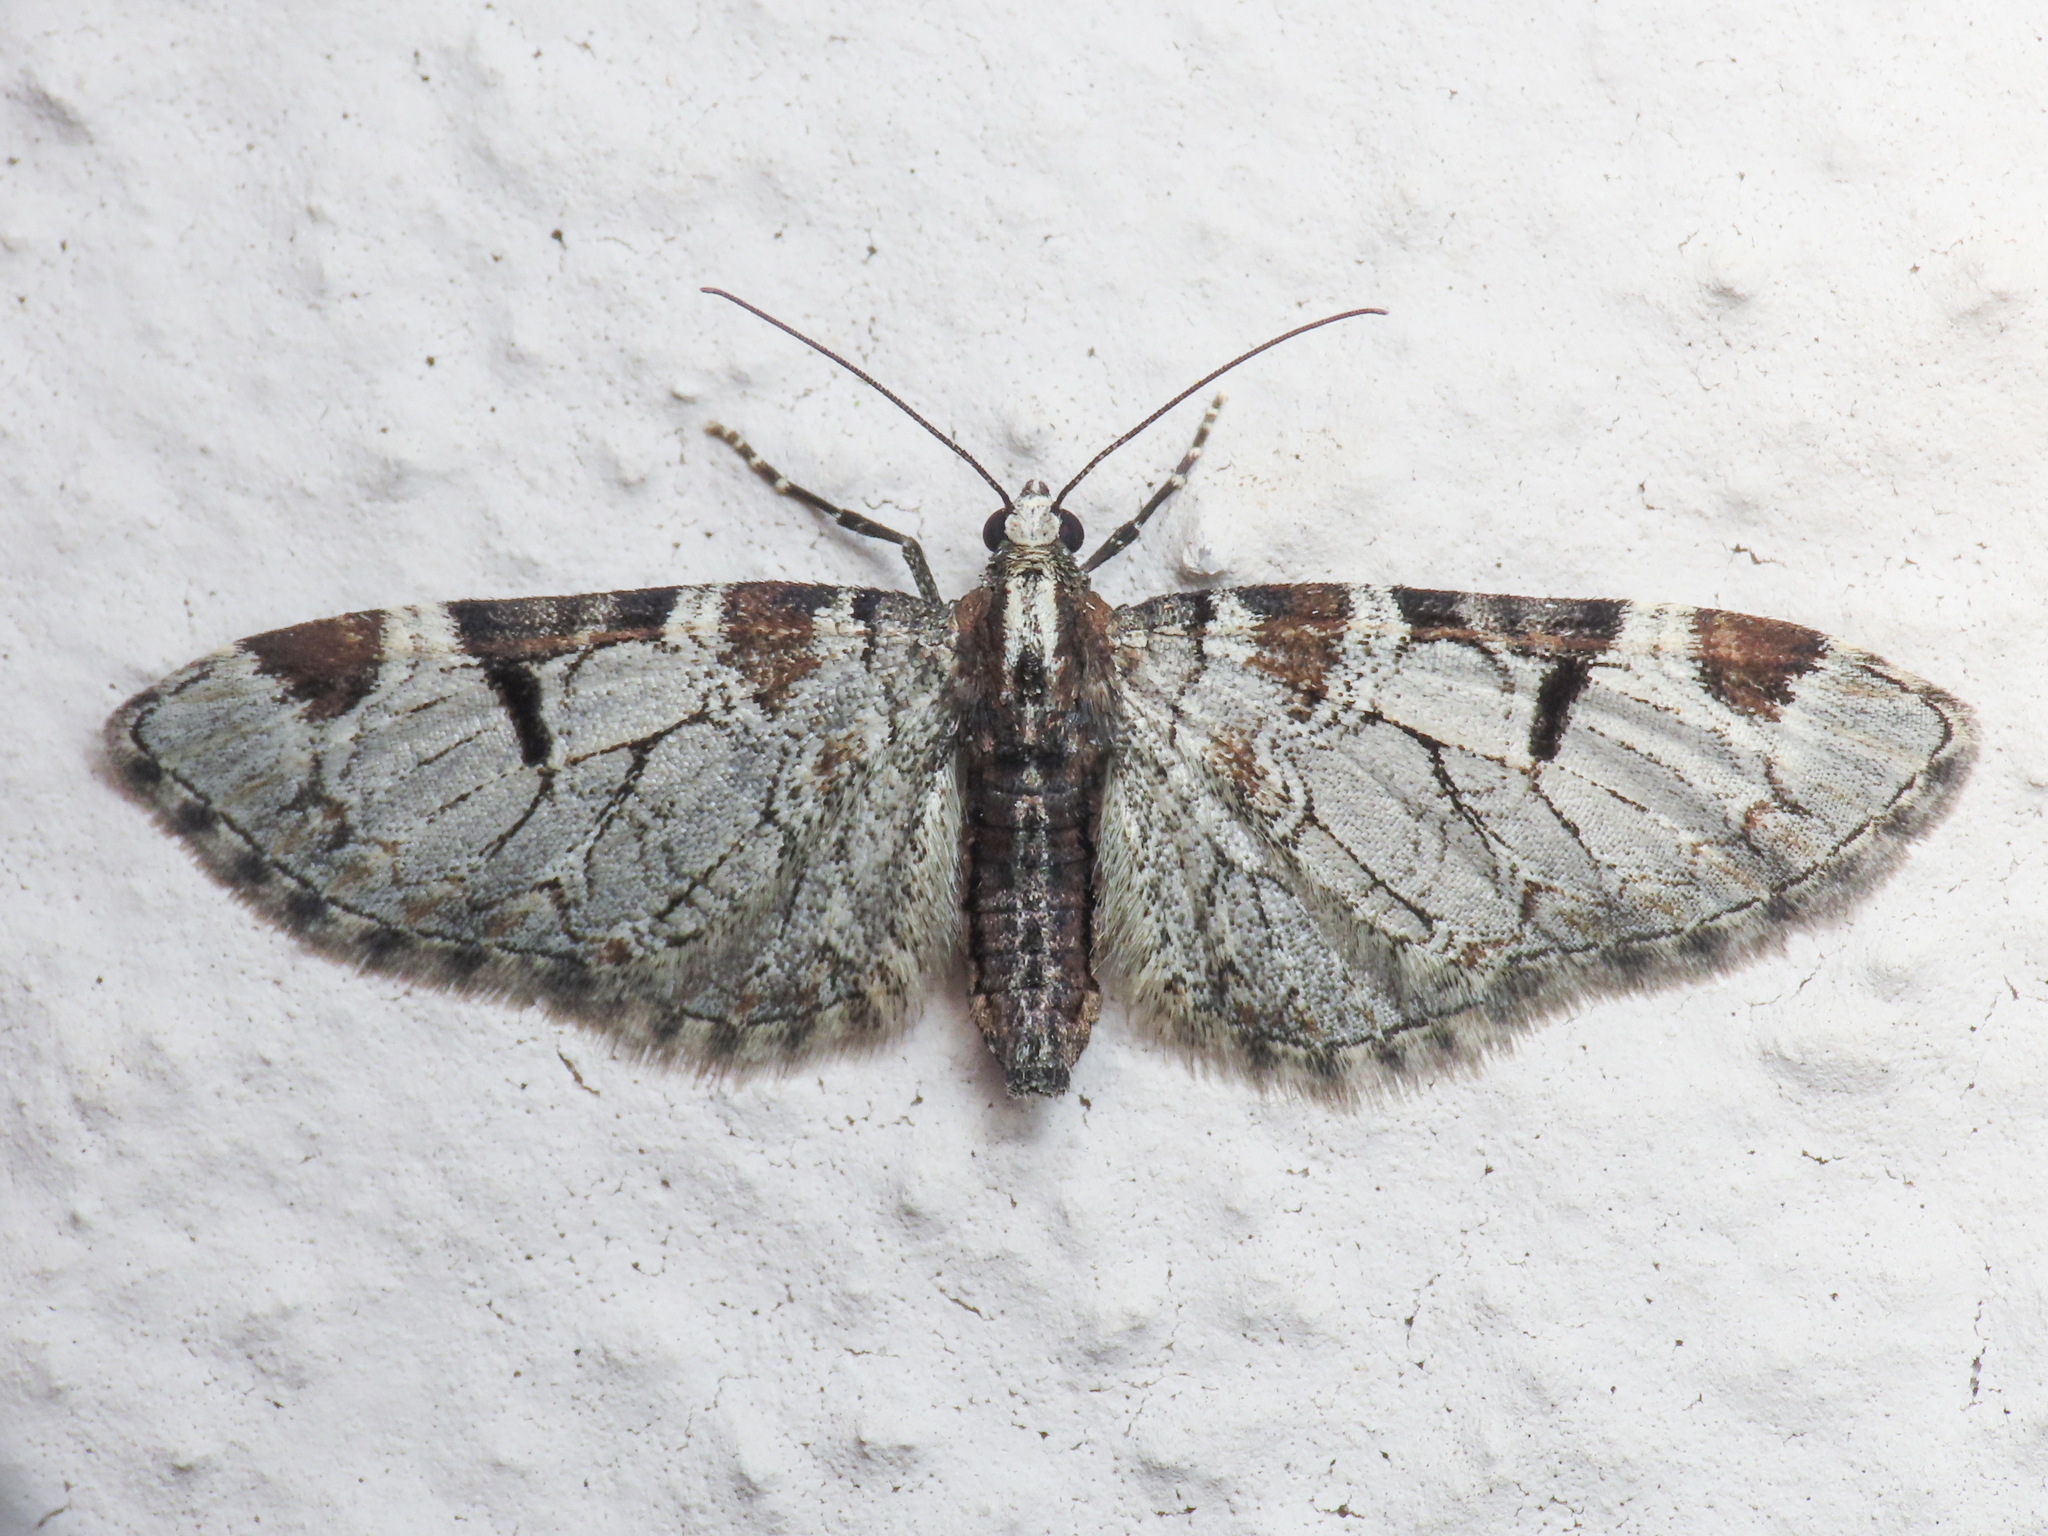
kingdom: Animalia
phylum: Arthropoda
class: Insecta
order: Lepidoptera
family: Geometridae
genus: Eupithecia
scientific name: Eupithecia insigniata
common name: Pinion-spotted pug
